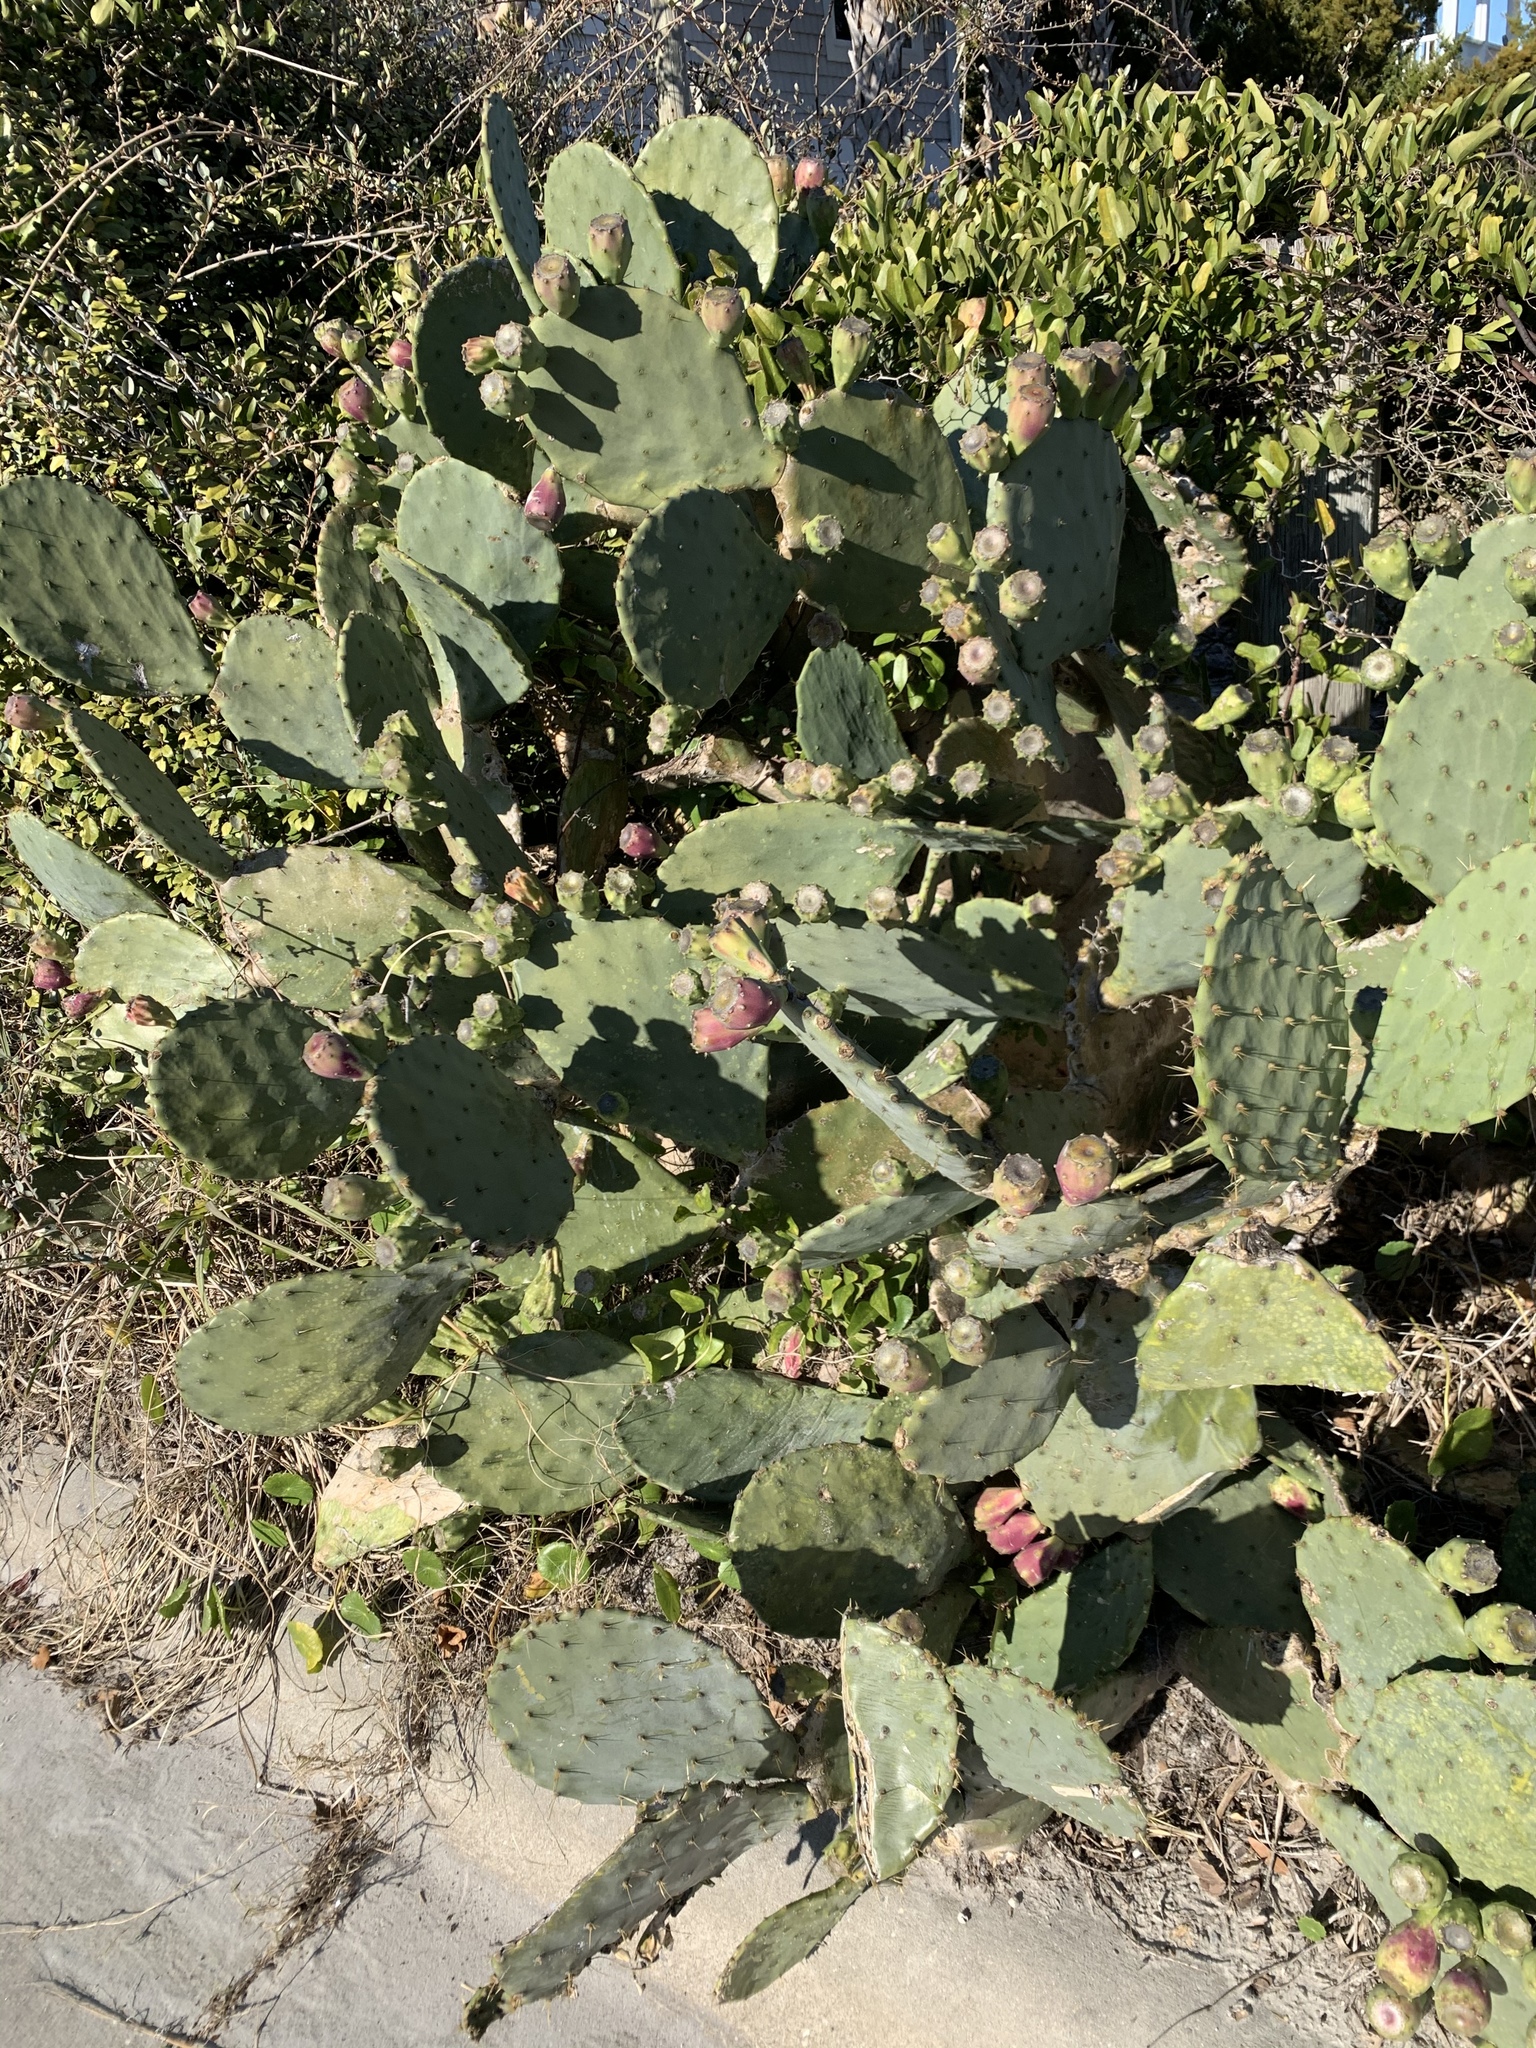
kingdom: Plantae
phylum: Tracheophyta
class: Magnoliopsida
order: Caryophyllales
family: Cactaceae
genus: Opuntia
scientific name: Opuntia tunoidea
